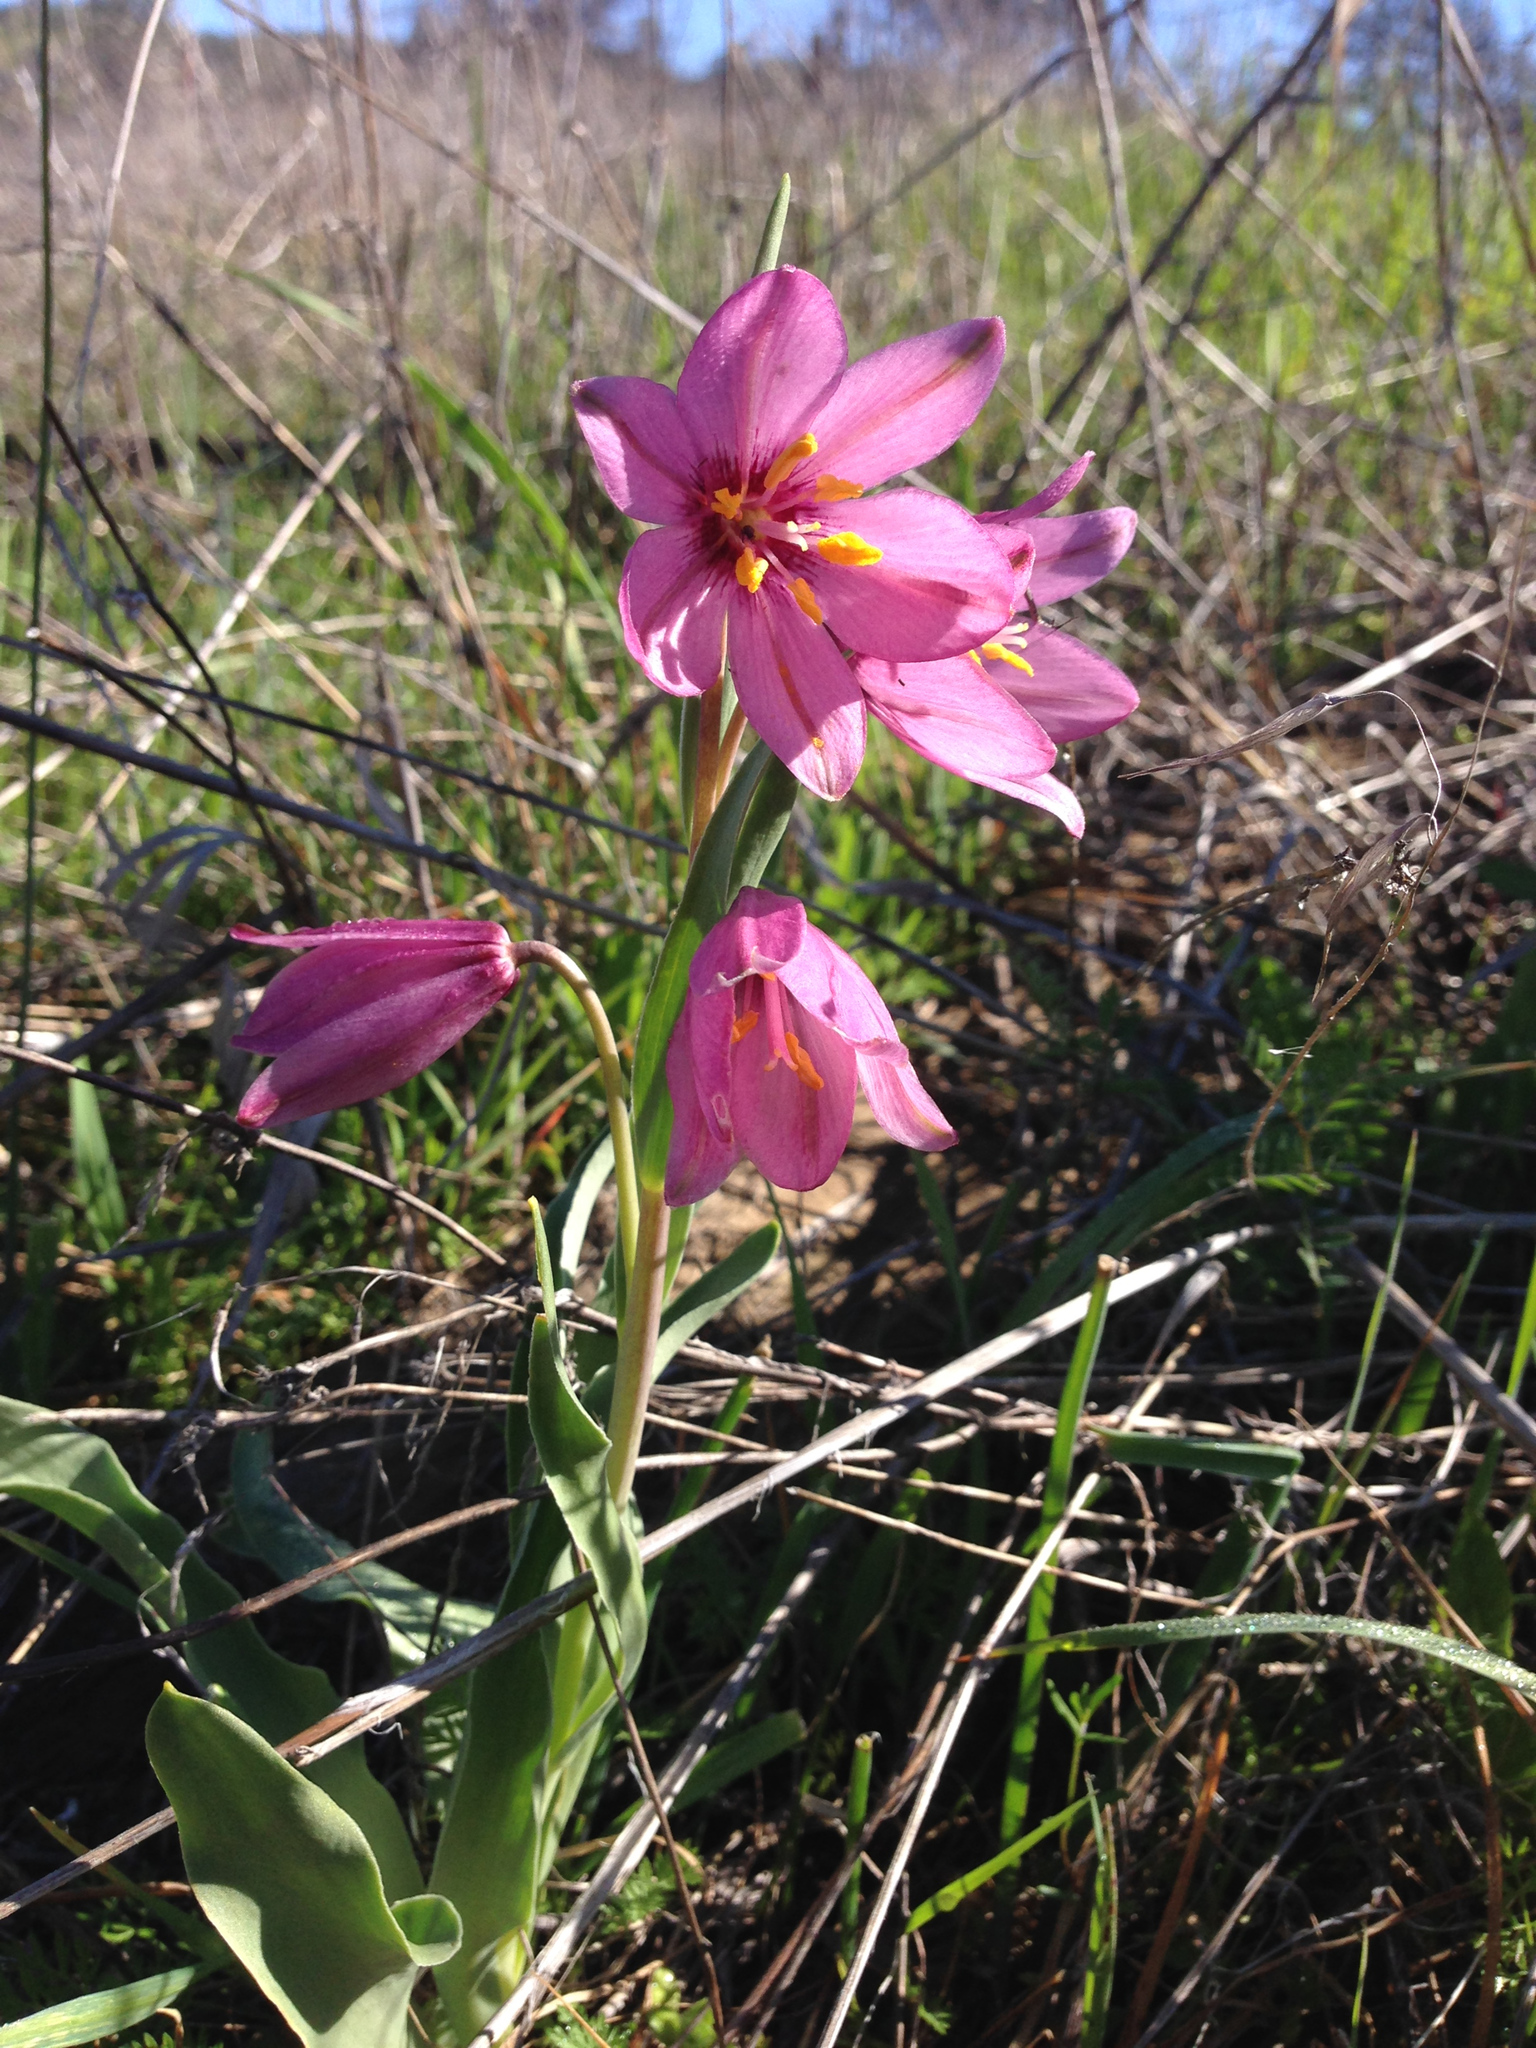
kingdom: Plantae
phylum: Tracheophyta
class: Liliopsida
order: Liliales
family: Liliaceae
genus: Fritillaria
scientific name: Fritillaria pluriflora
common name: Adobe-lily
